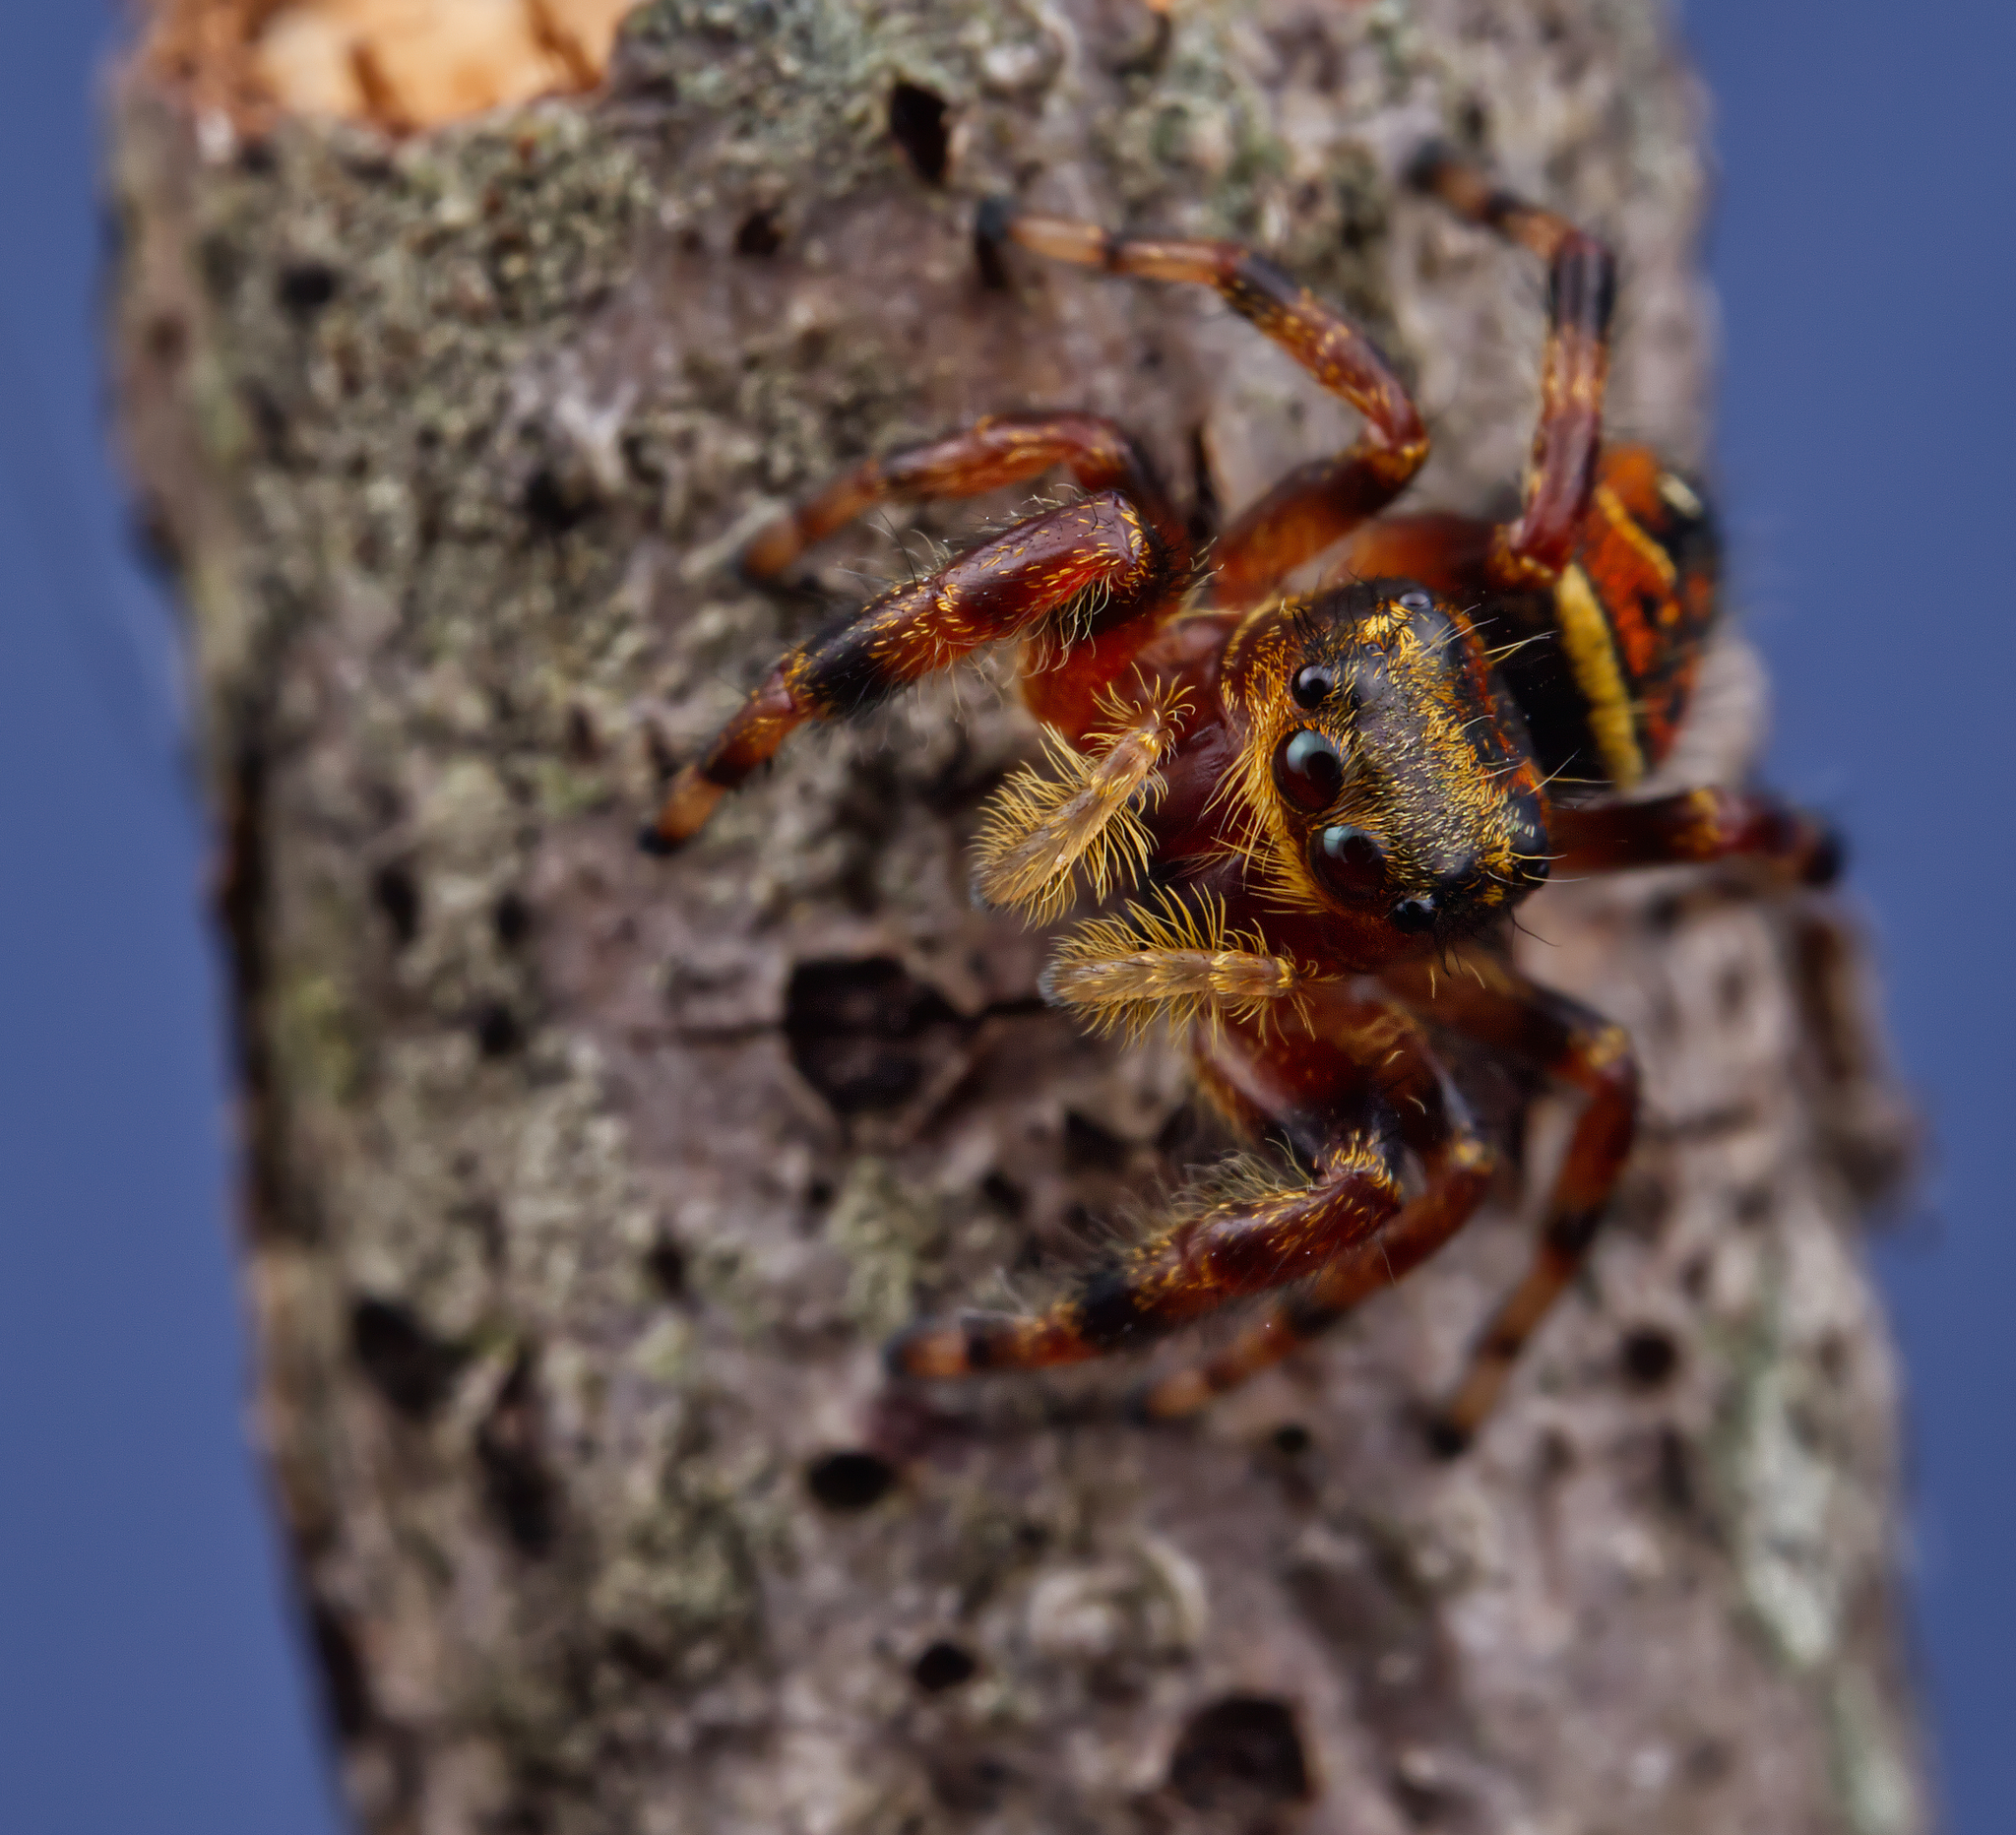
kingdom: Animalia
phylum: Arthropoda
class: Arachnida
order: Araneae
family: Salticidae
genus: Phidippus
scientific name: Phidippus clarus
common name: Brilliant jumping spider
